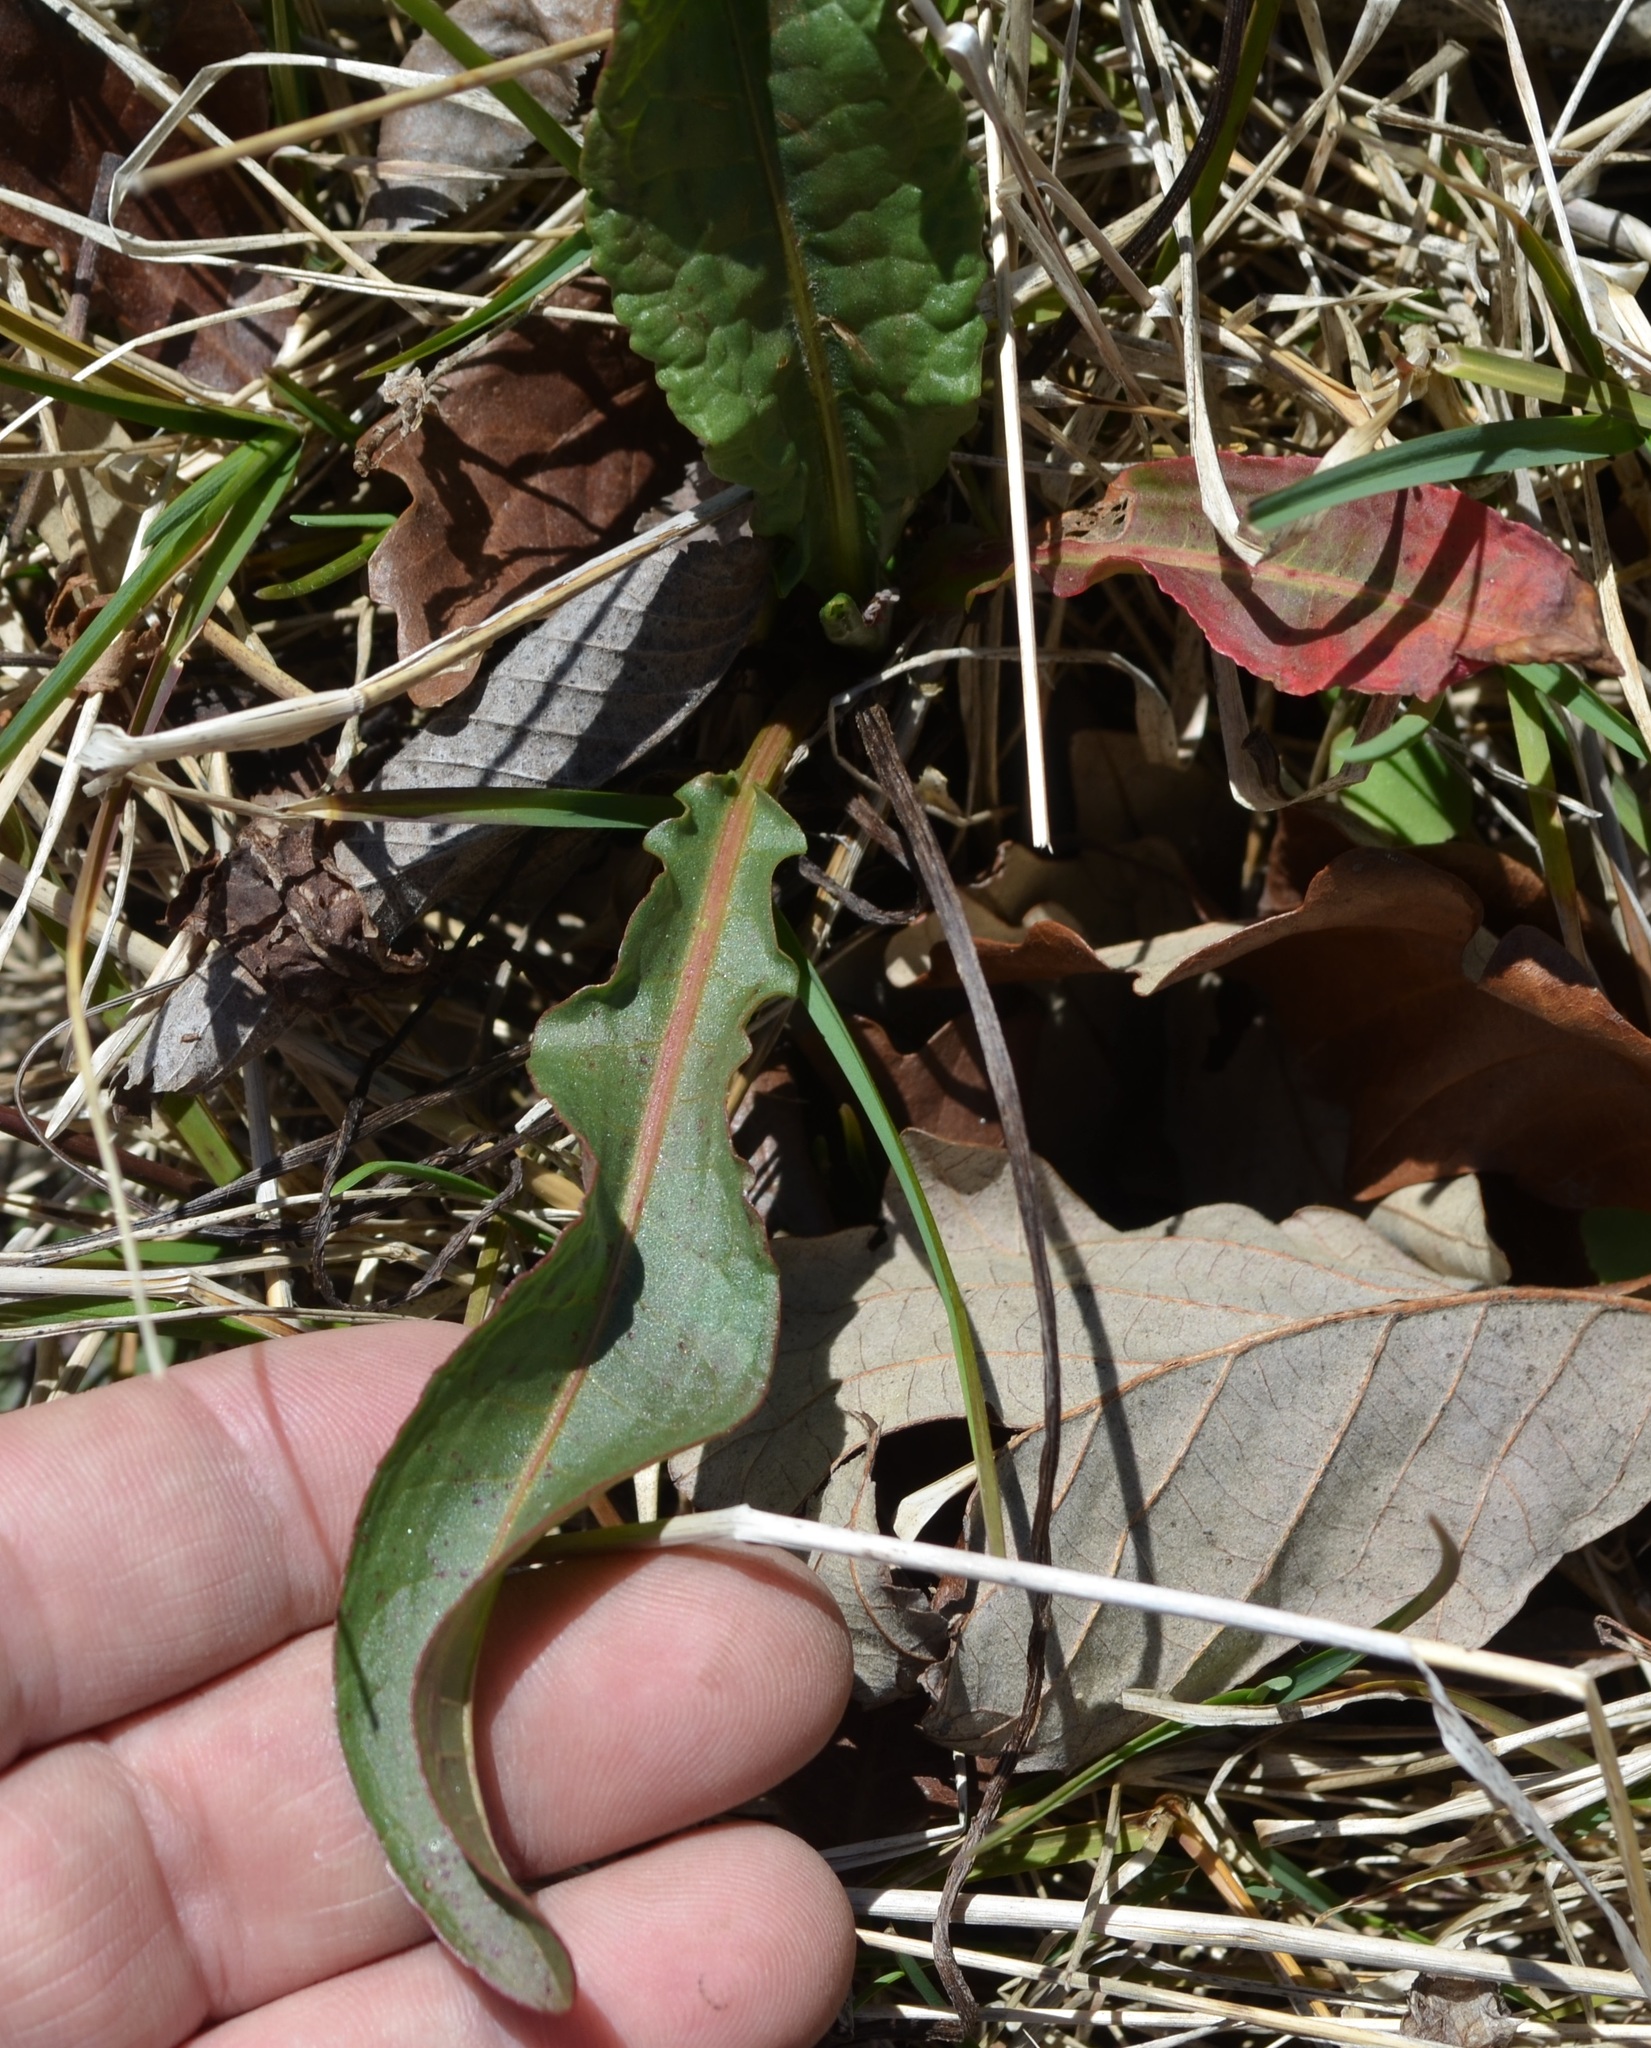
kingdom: Plantae
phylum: Tracheophyta
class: Magnoliopsida
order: Caryophyllales
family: Polygonaceae
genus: Rumex
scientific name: Rumex crispus
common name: Curled dock
